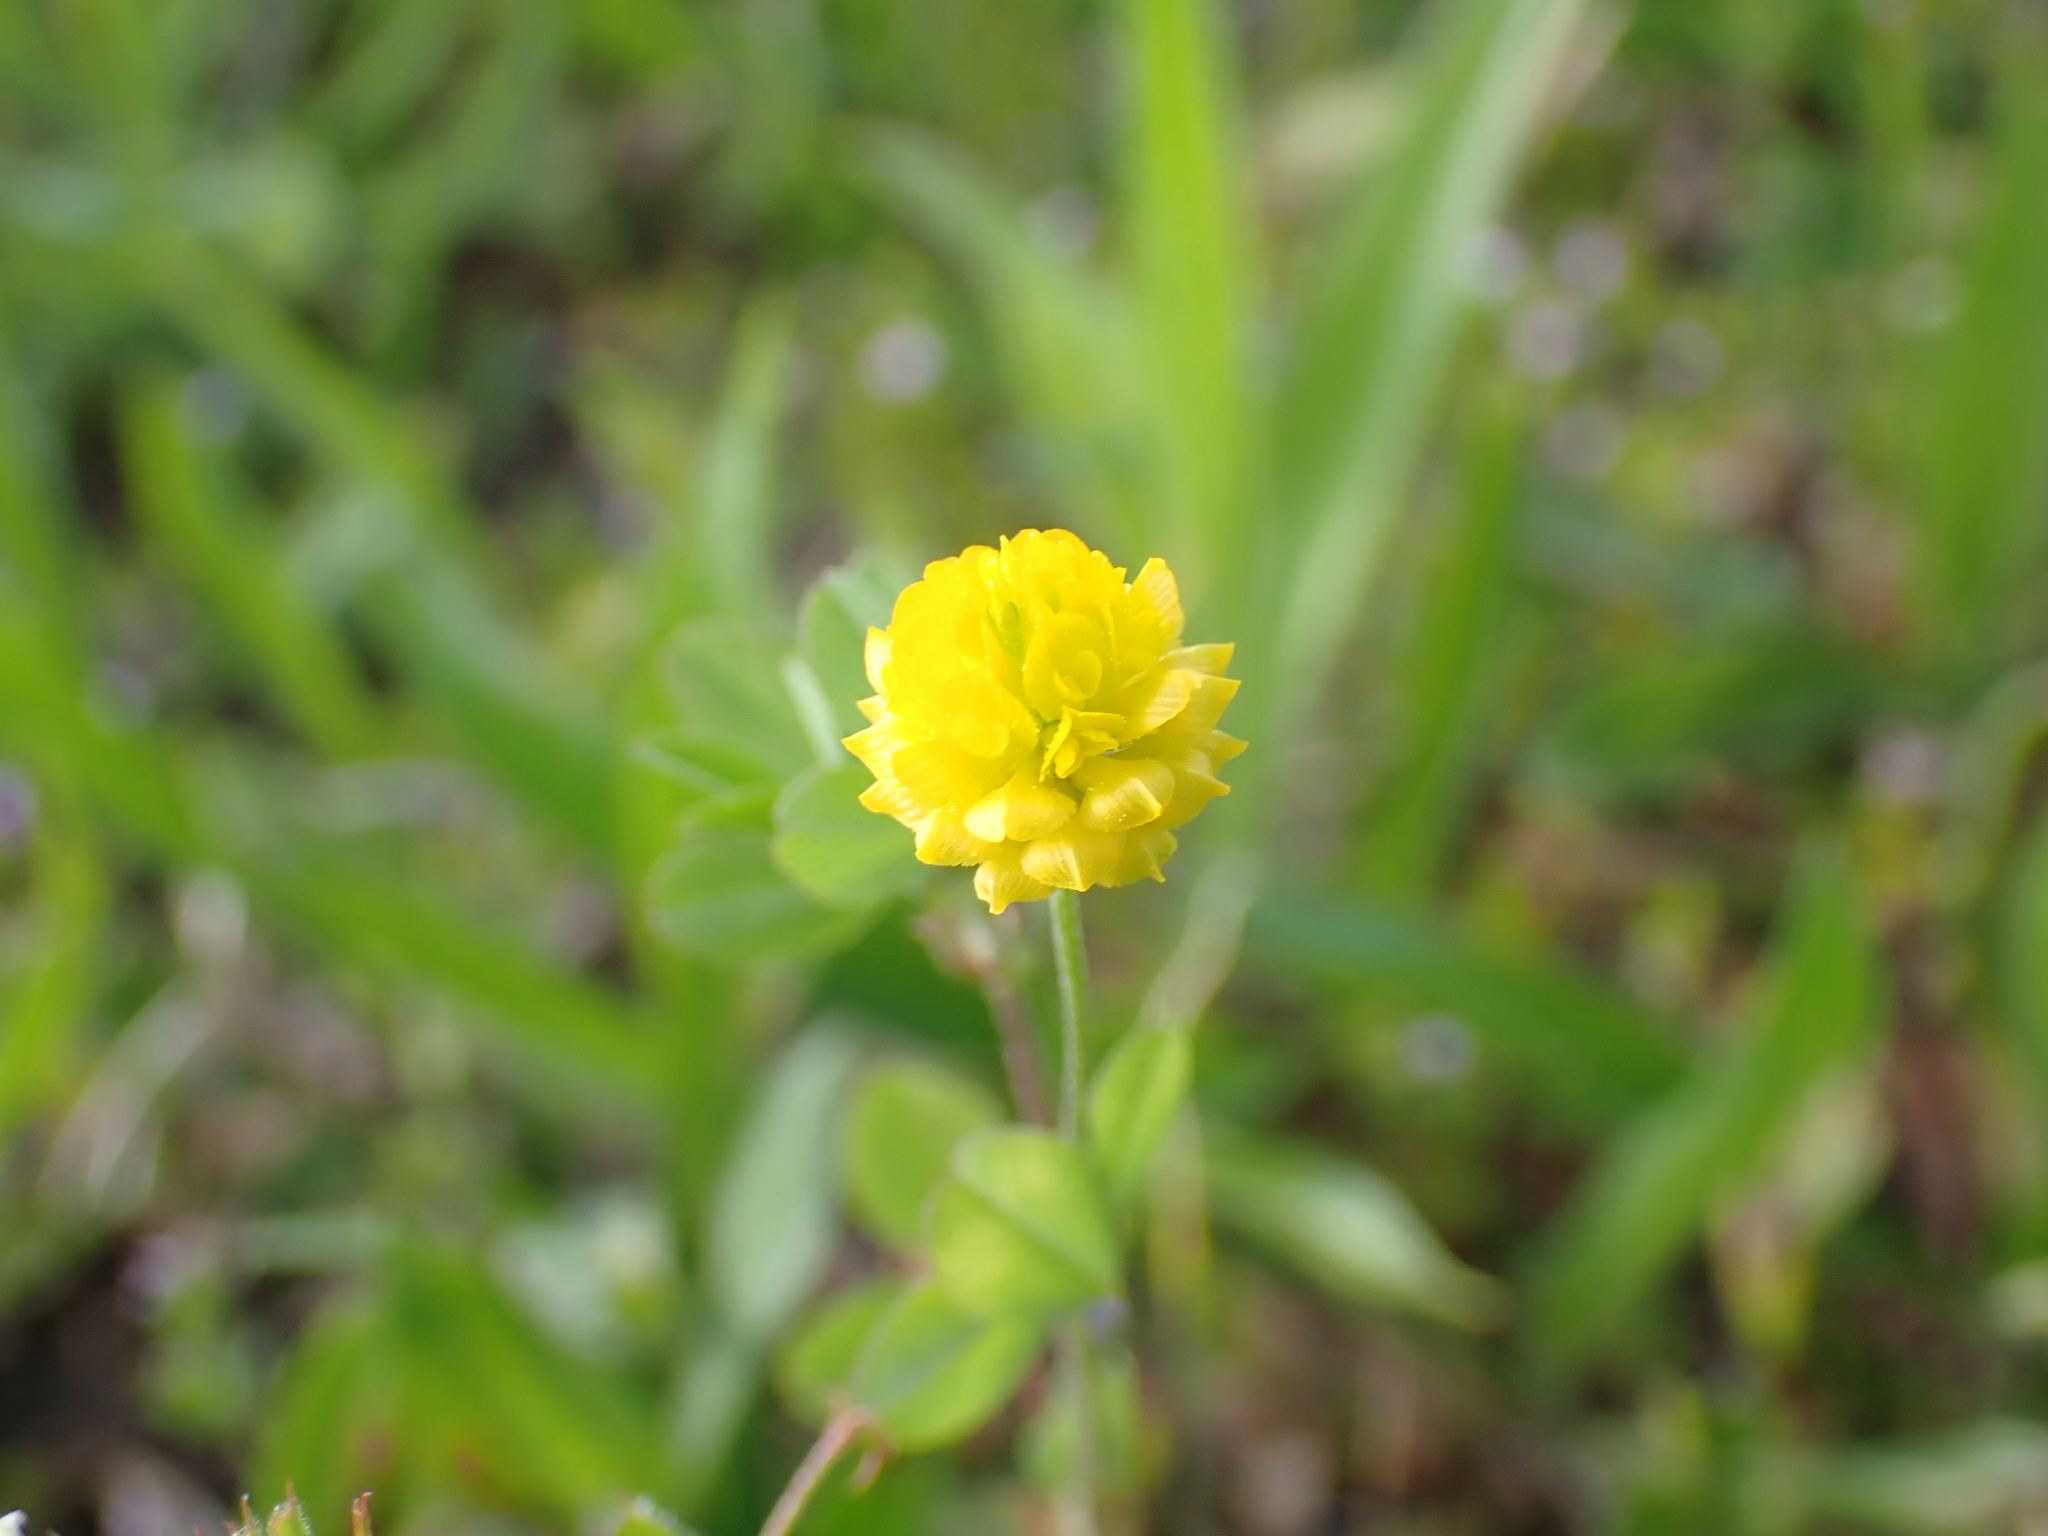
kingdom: Plantae
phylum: Tracheophyta
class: Magnoliopsida
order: Fabales
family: Fabaceae
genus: Trifolium
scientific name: Trifolium campestre
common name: Field clover
